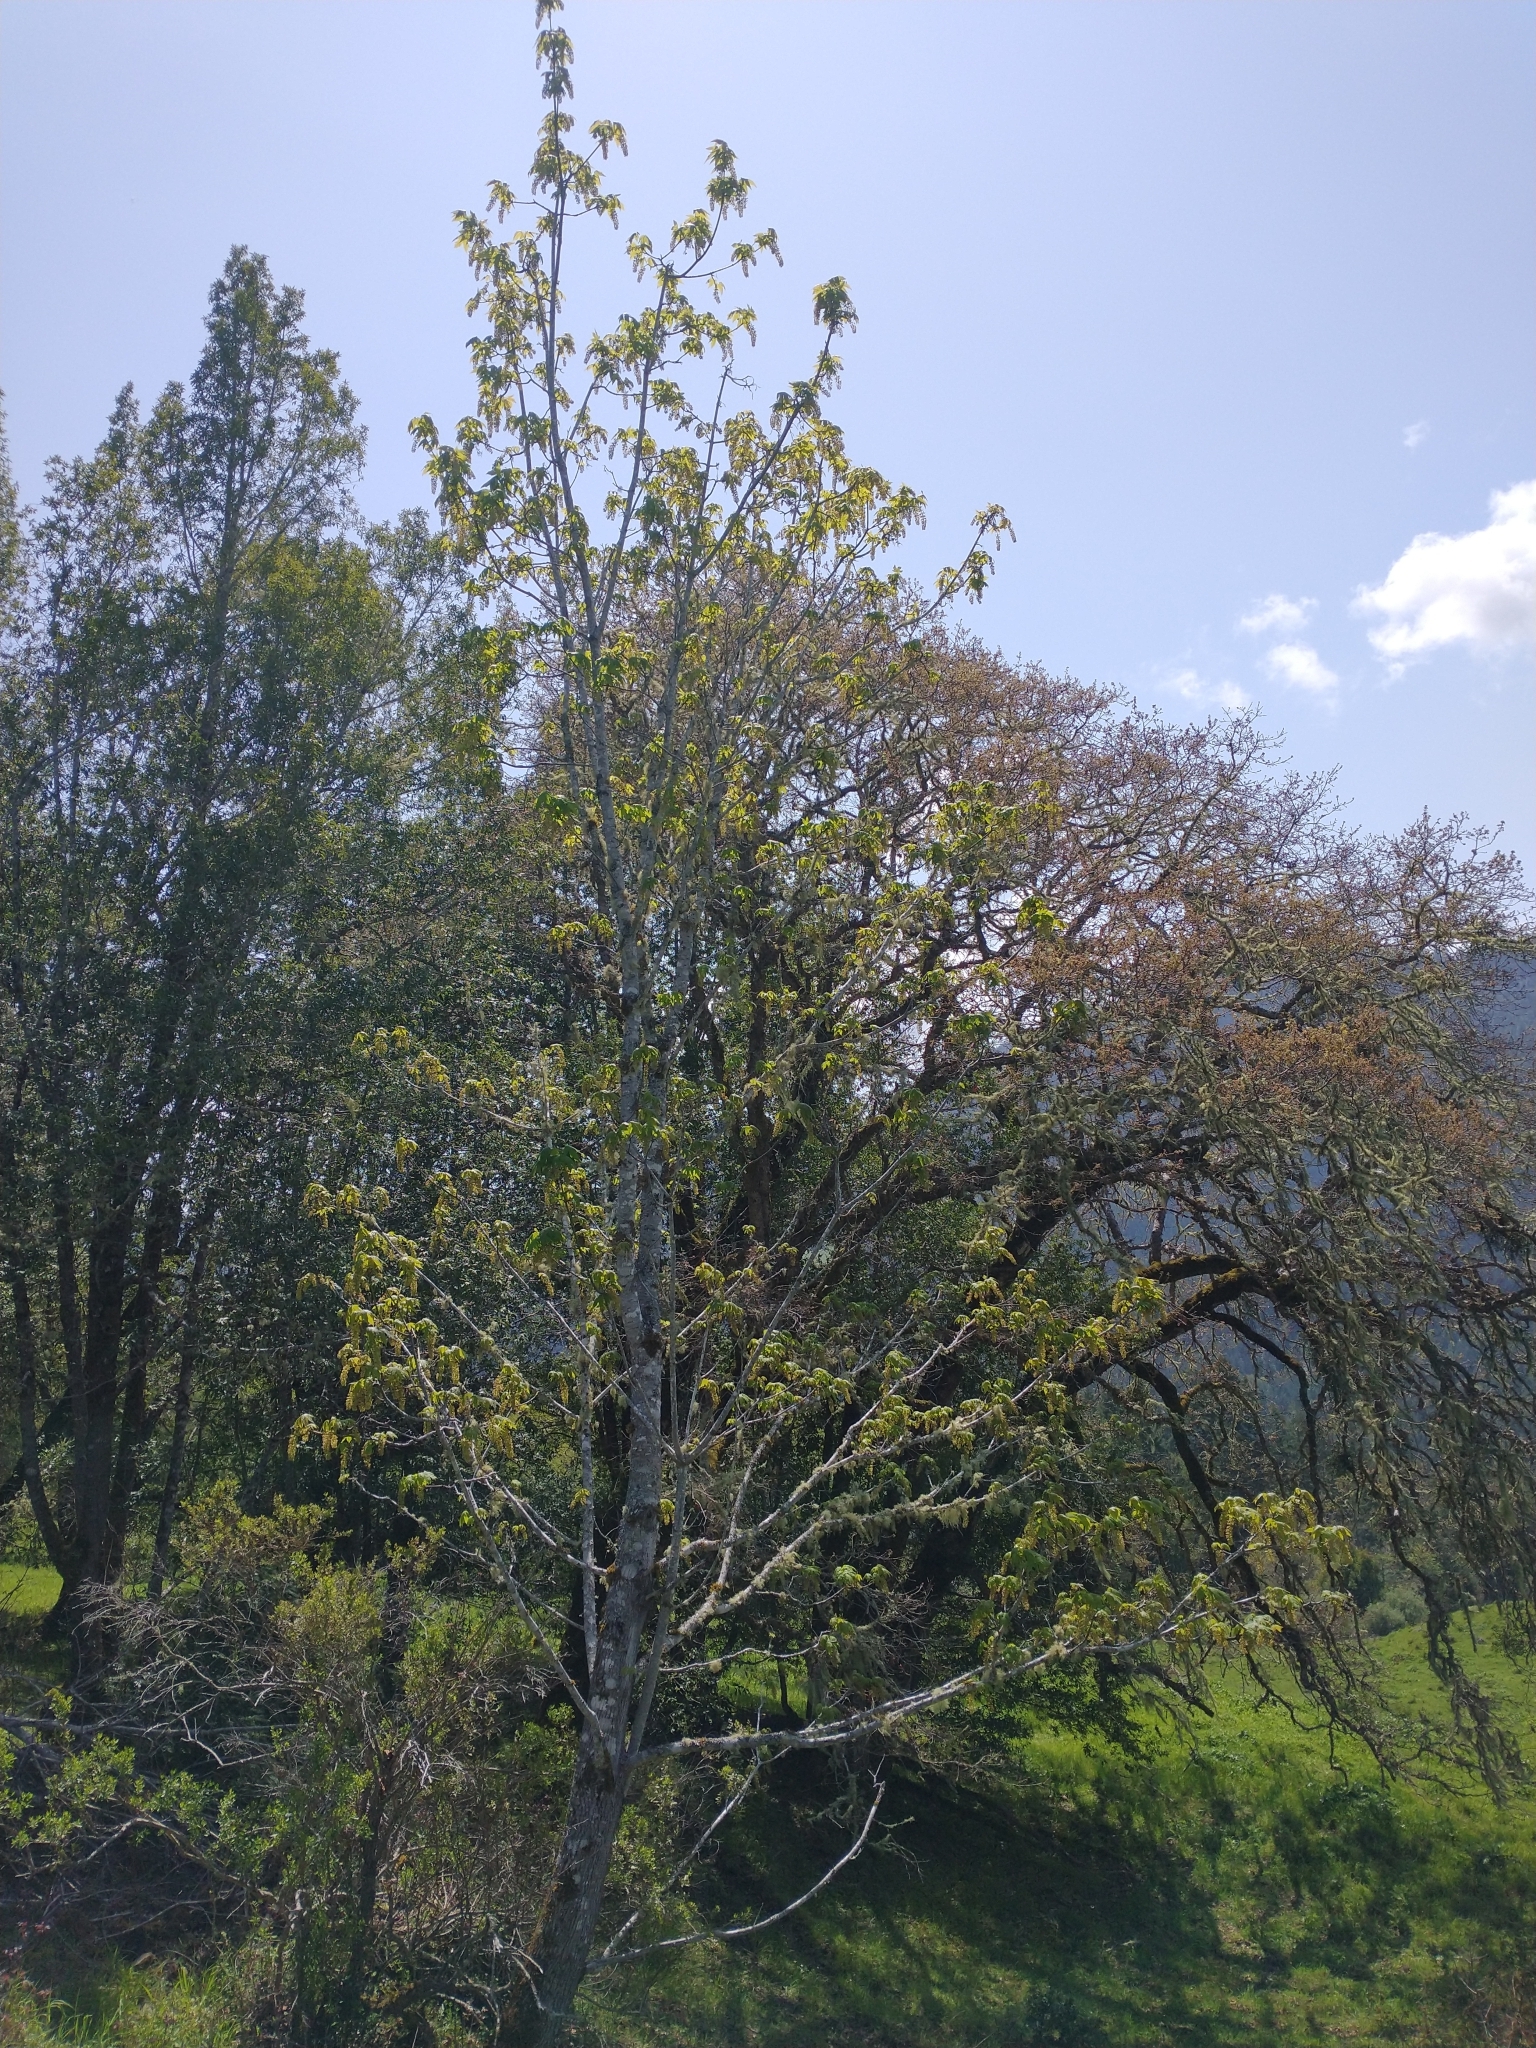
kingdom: Plantae
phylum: Tracheophyta
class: Magnoliopsida
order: Sapindales
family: Sapindaceae
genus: Acer
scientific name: Acer macrophyllum
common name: Oregon maple
